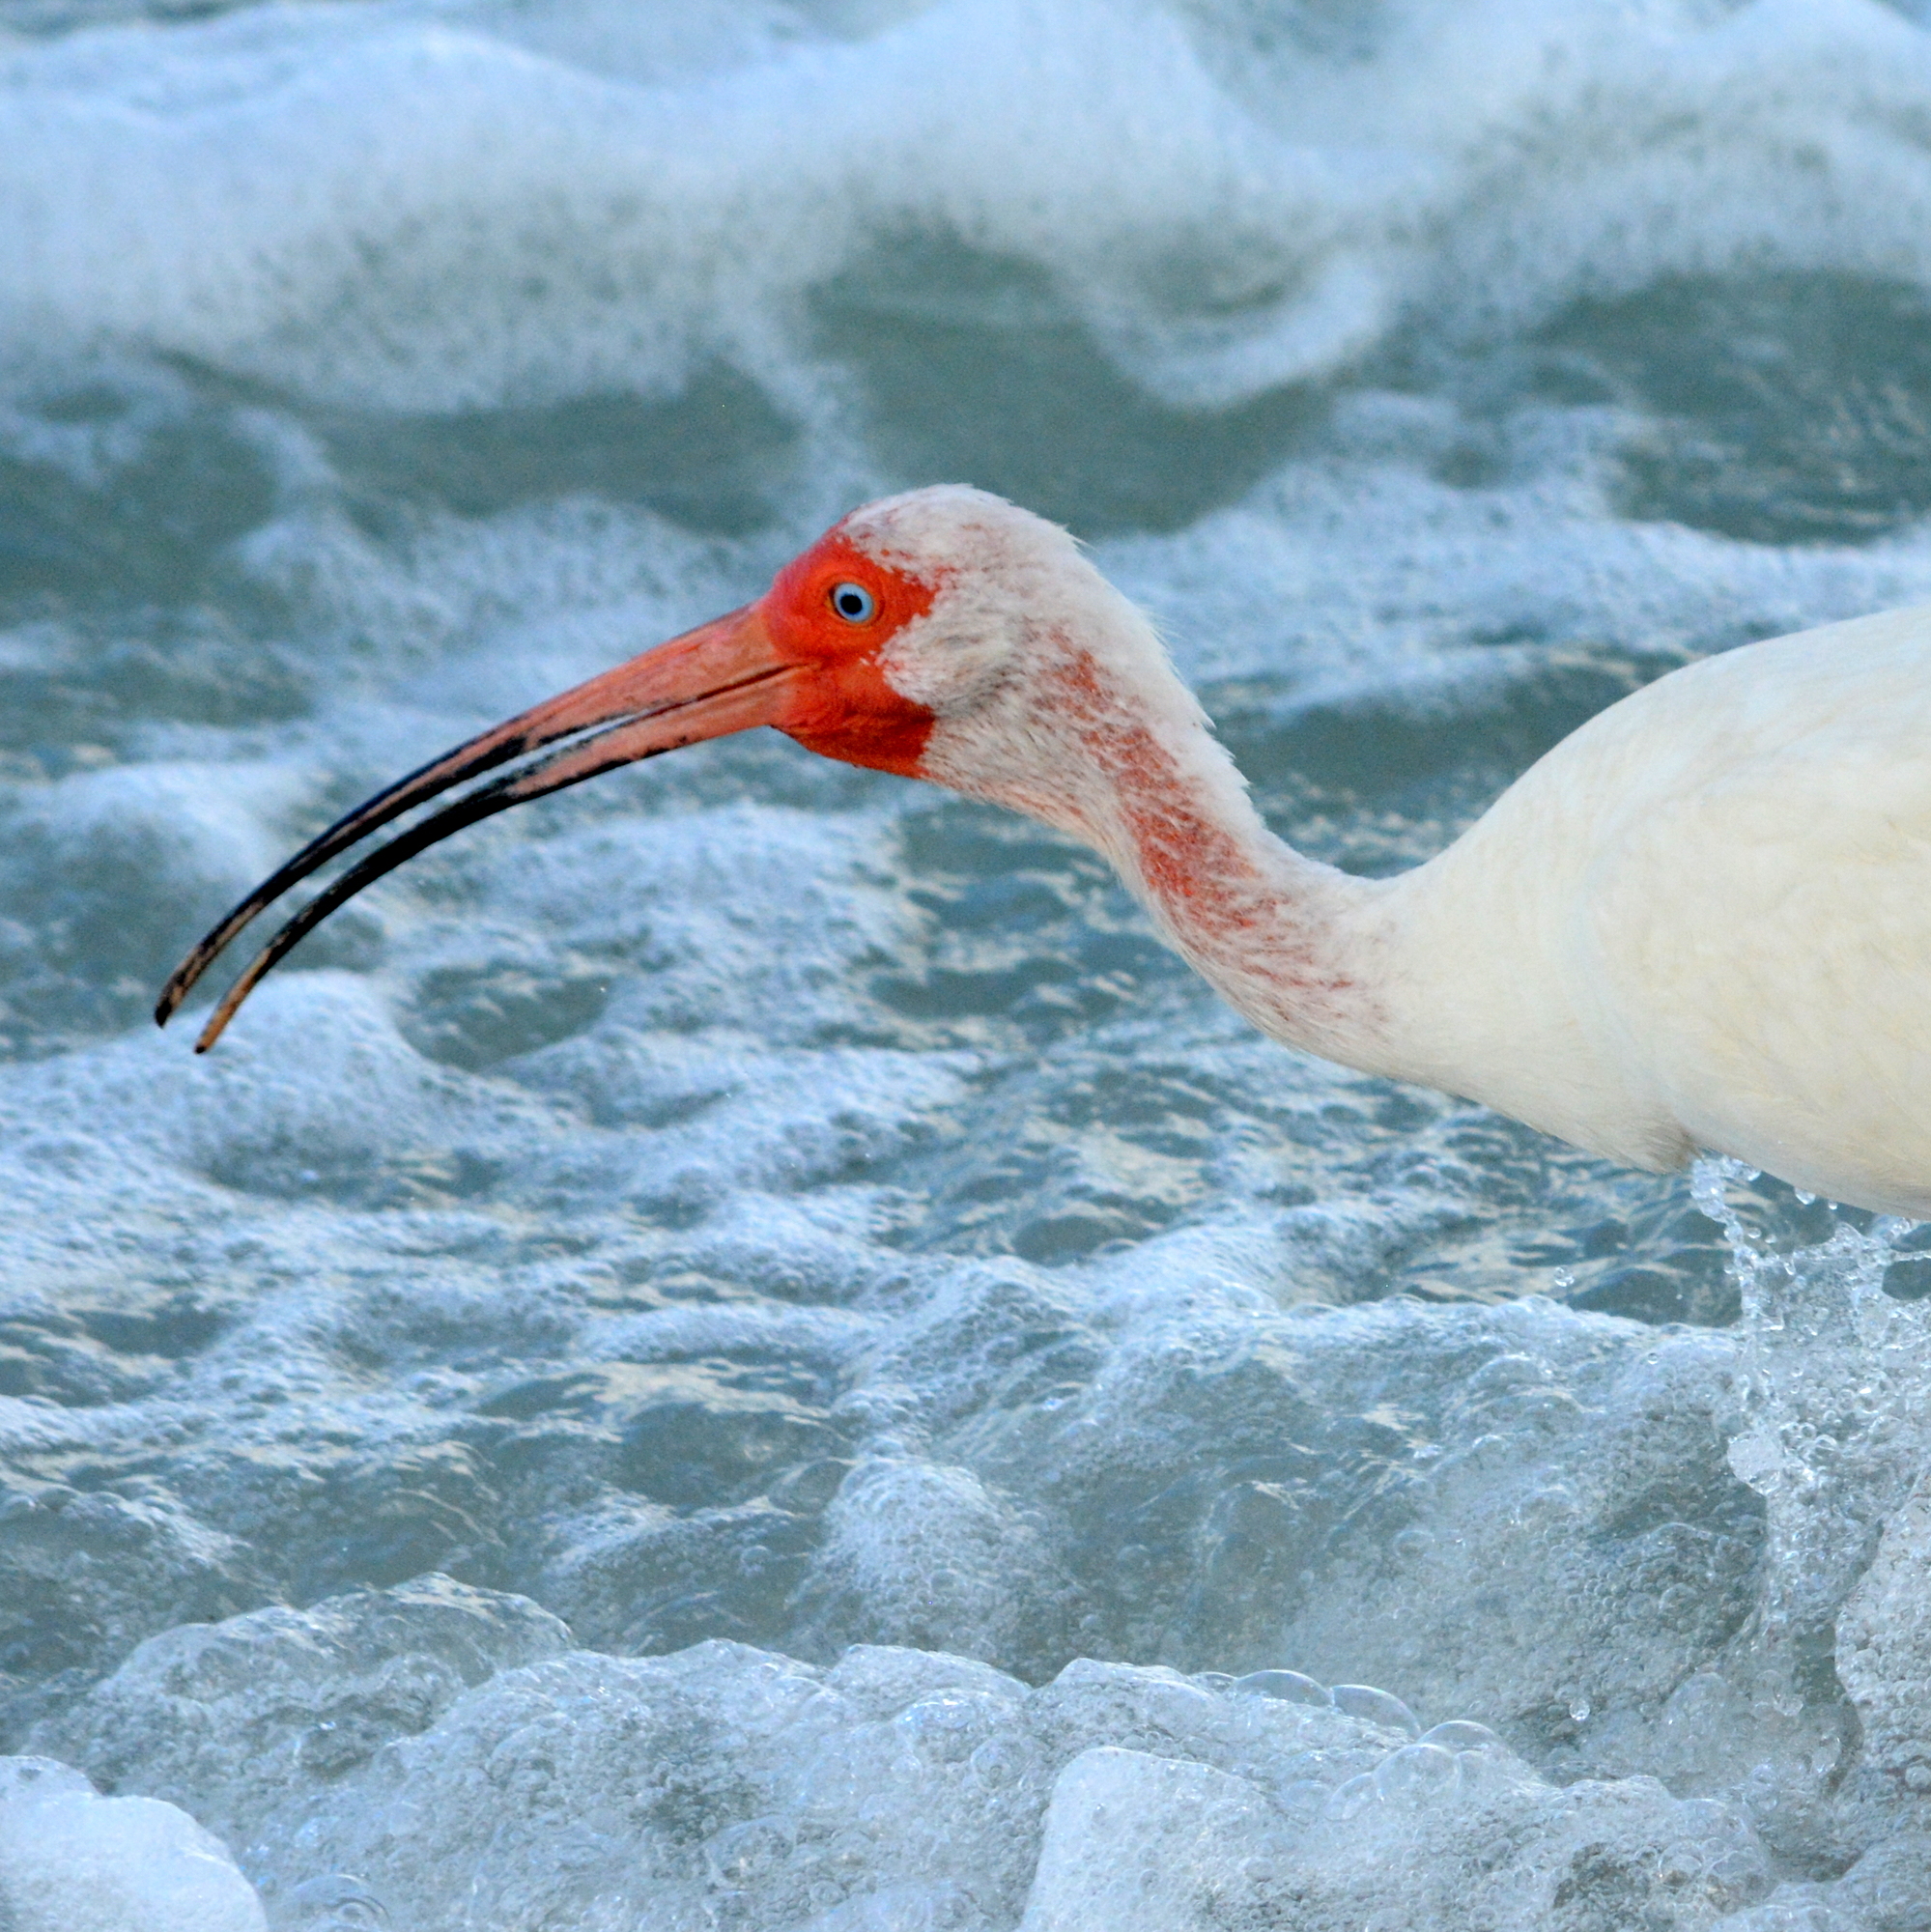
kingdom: Animalia
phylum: Chordata
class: Aves
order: Pelecaniformes
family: Threskiornithidae
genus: Eudocimus
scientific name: Eudocimus albus
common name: White ibis
